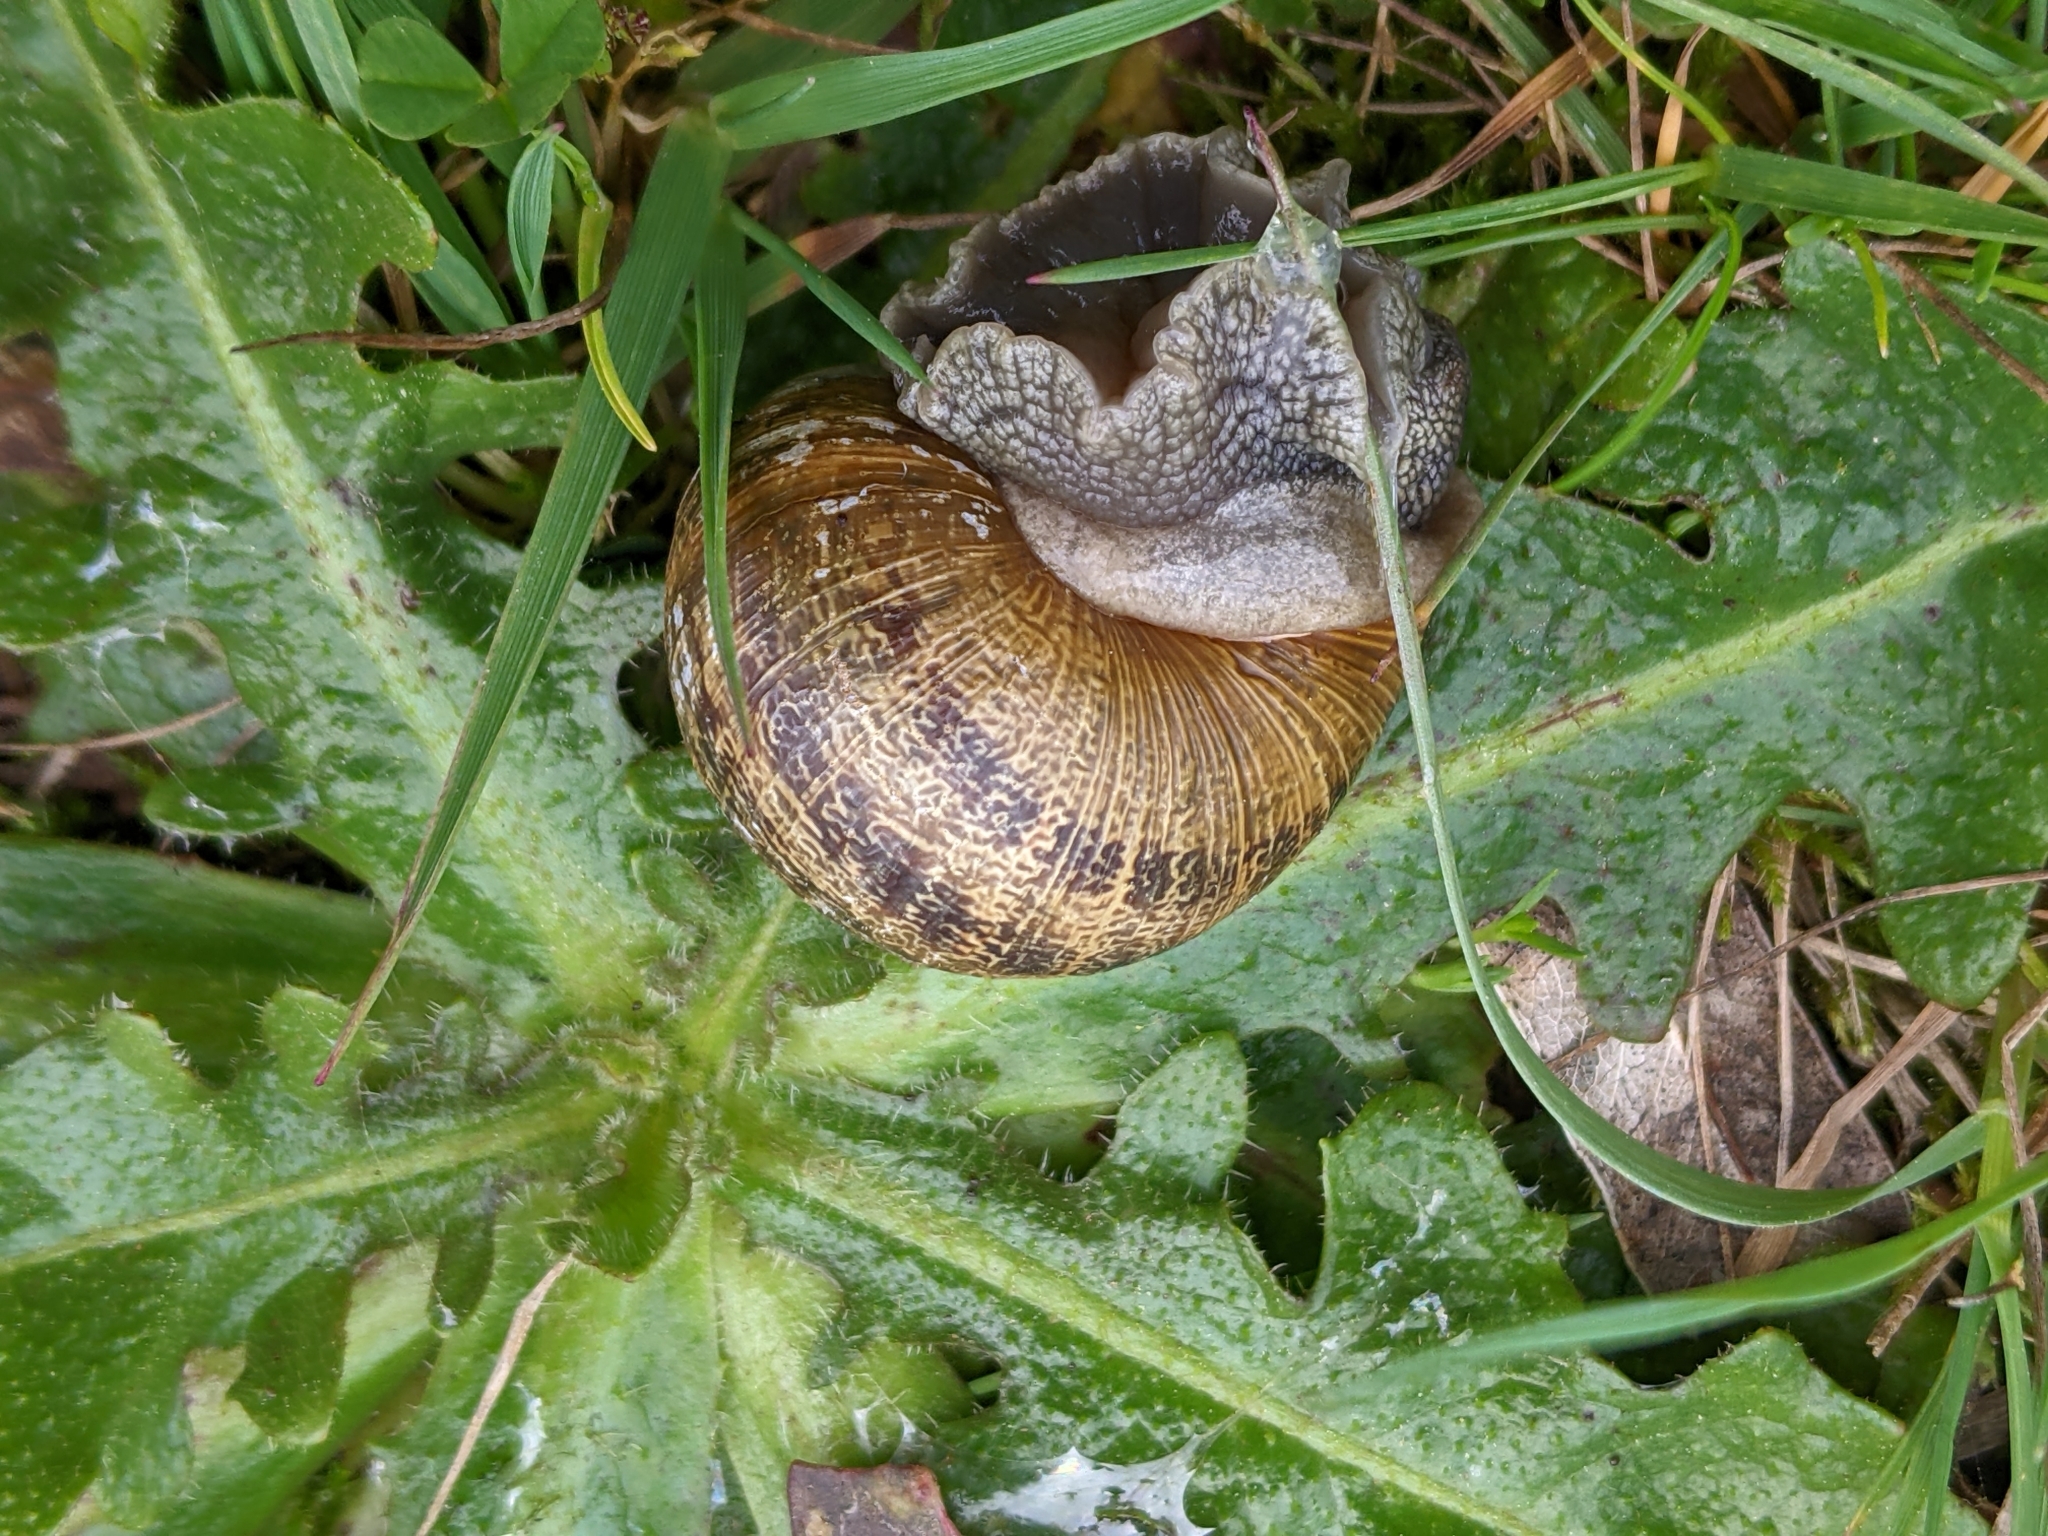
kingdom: Animalia
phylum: Mollusca
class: Gastropoda
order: Stylommatophora
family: Helicidae
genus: Cornu
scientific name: Cornu aspersum
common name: Brown garden snail
